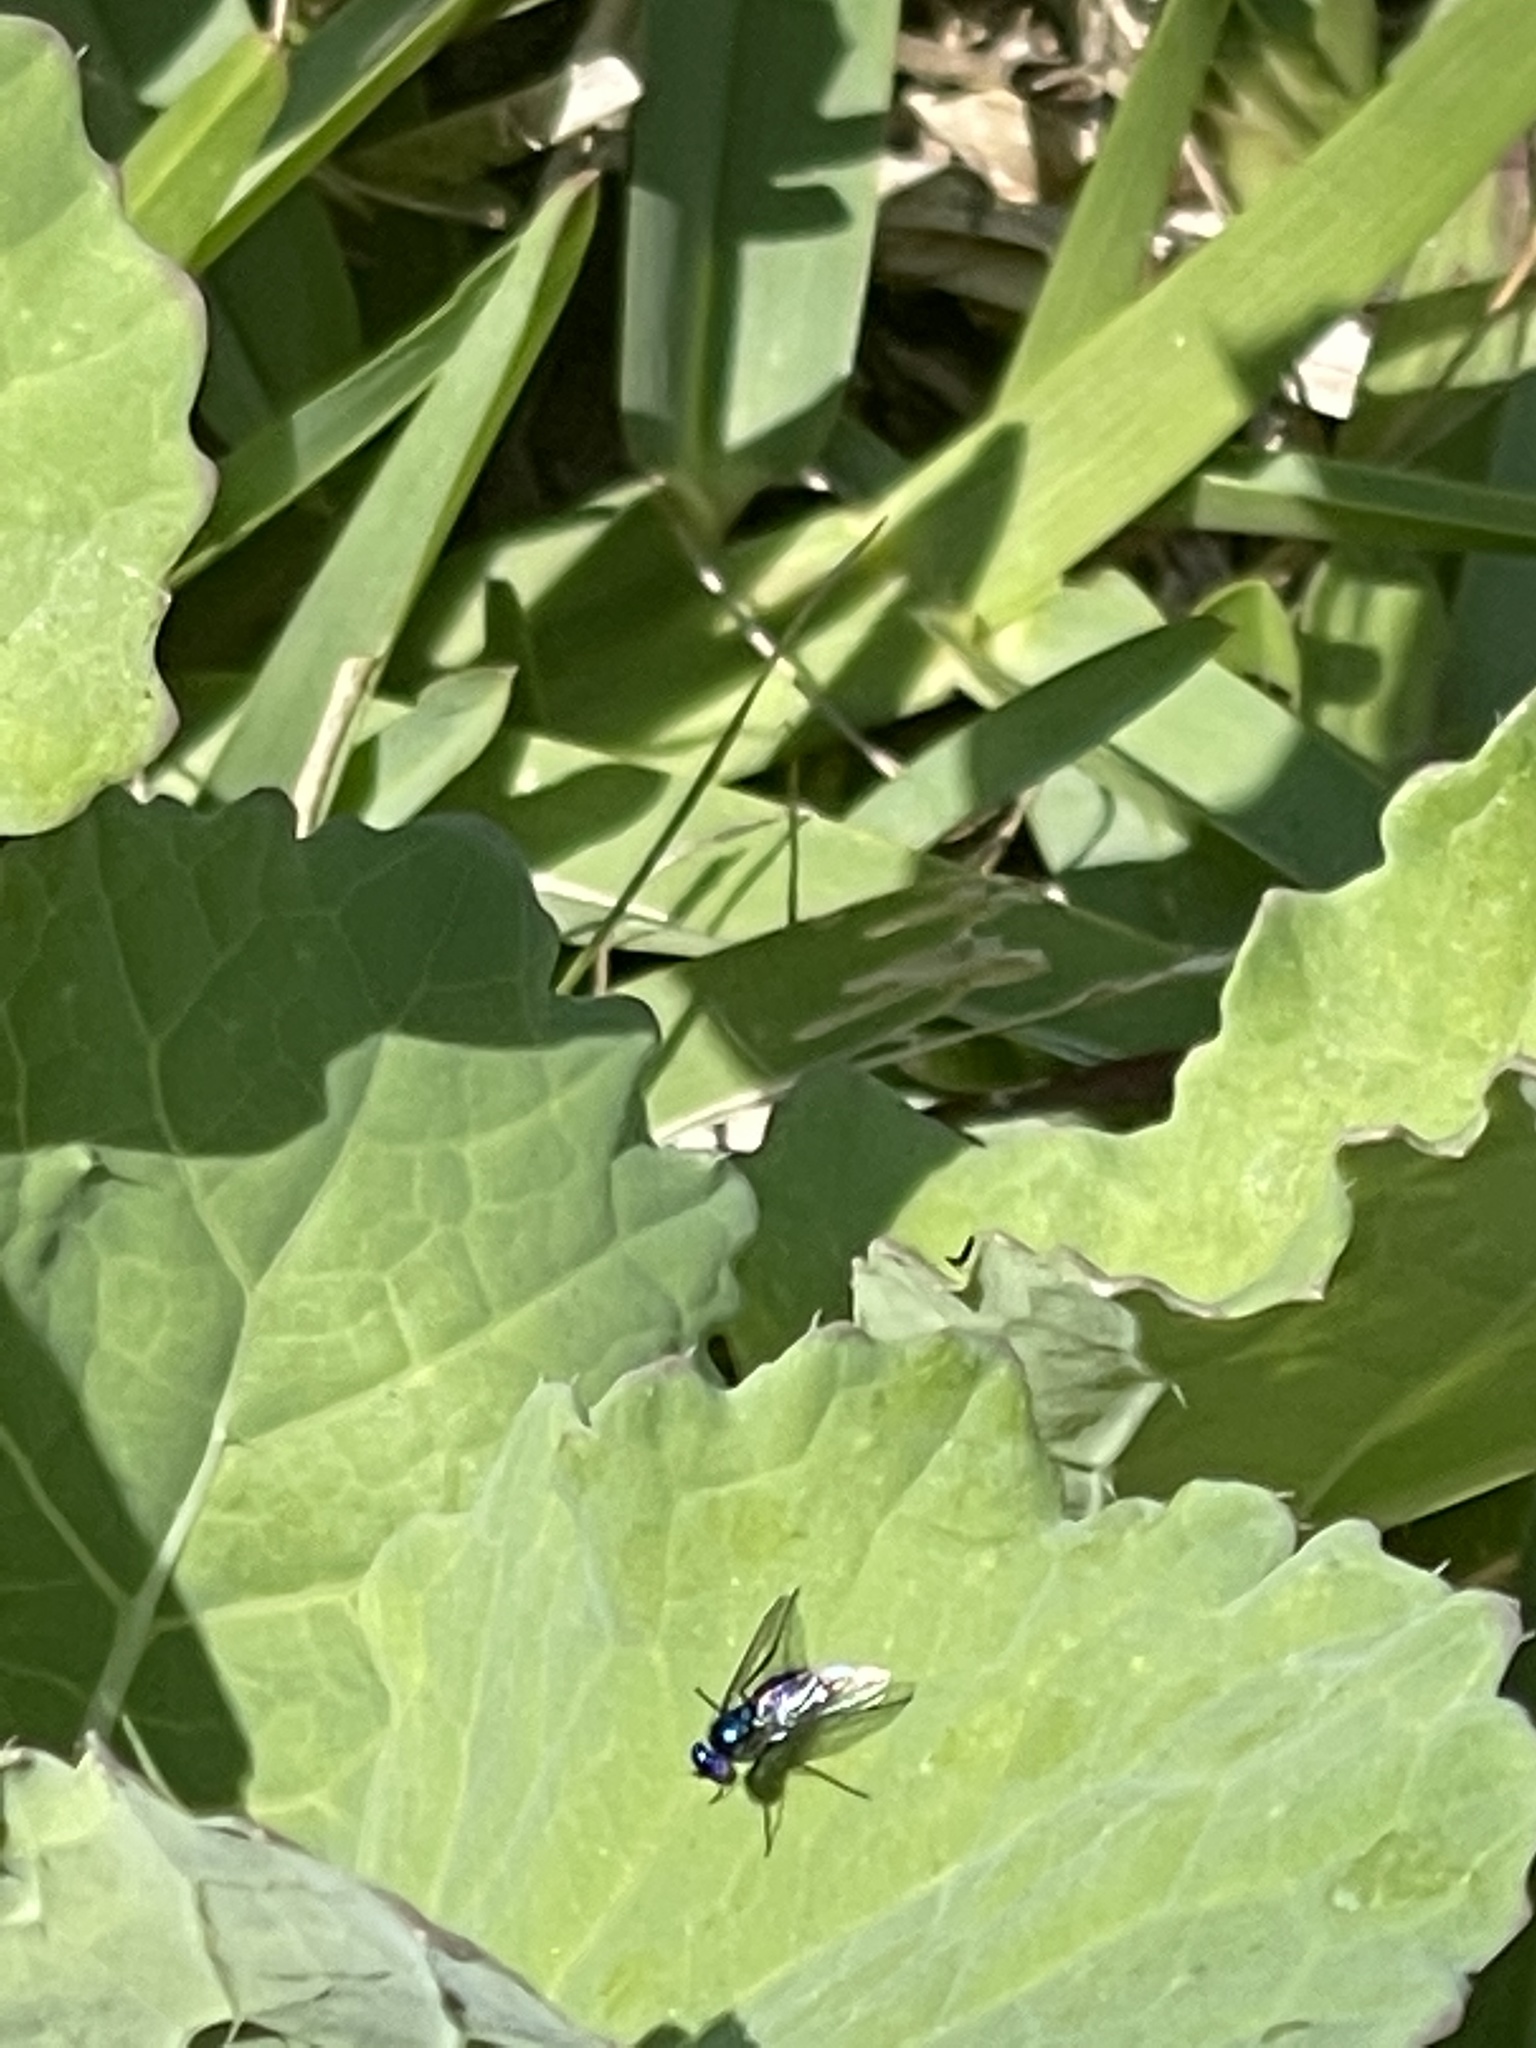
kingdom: Animalia
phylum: Arthropoda
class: Insecta
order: Diptera
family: Dolichopodidae
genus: Condylostylus
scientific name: Condylostylus mundus
